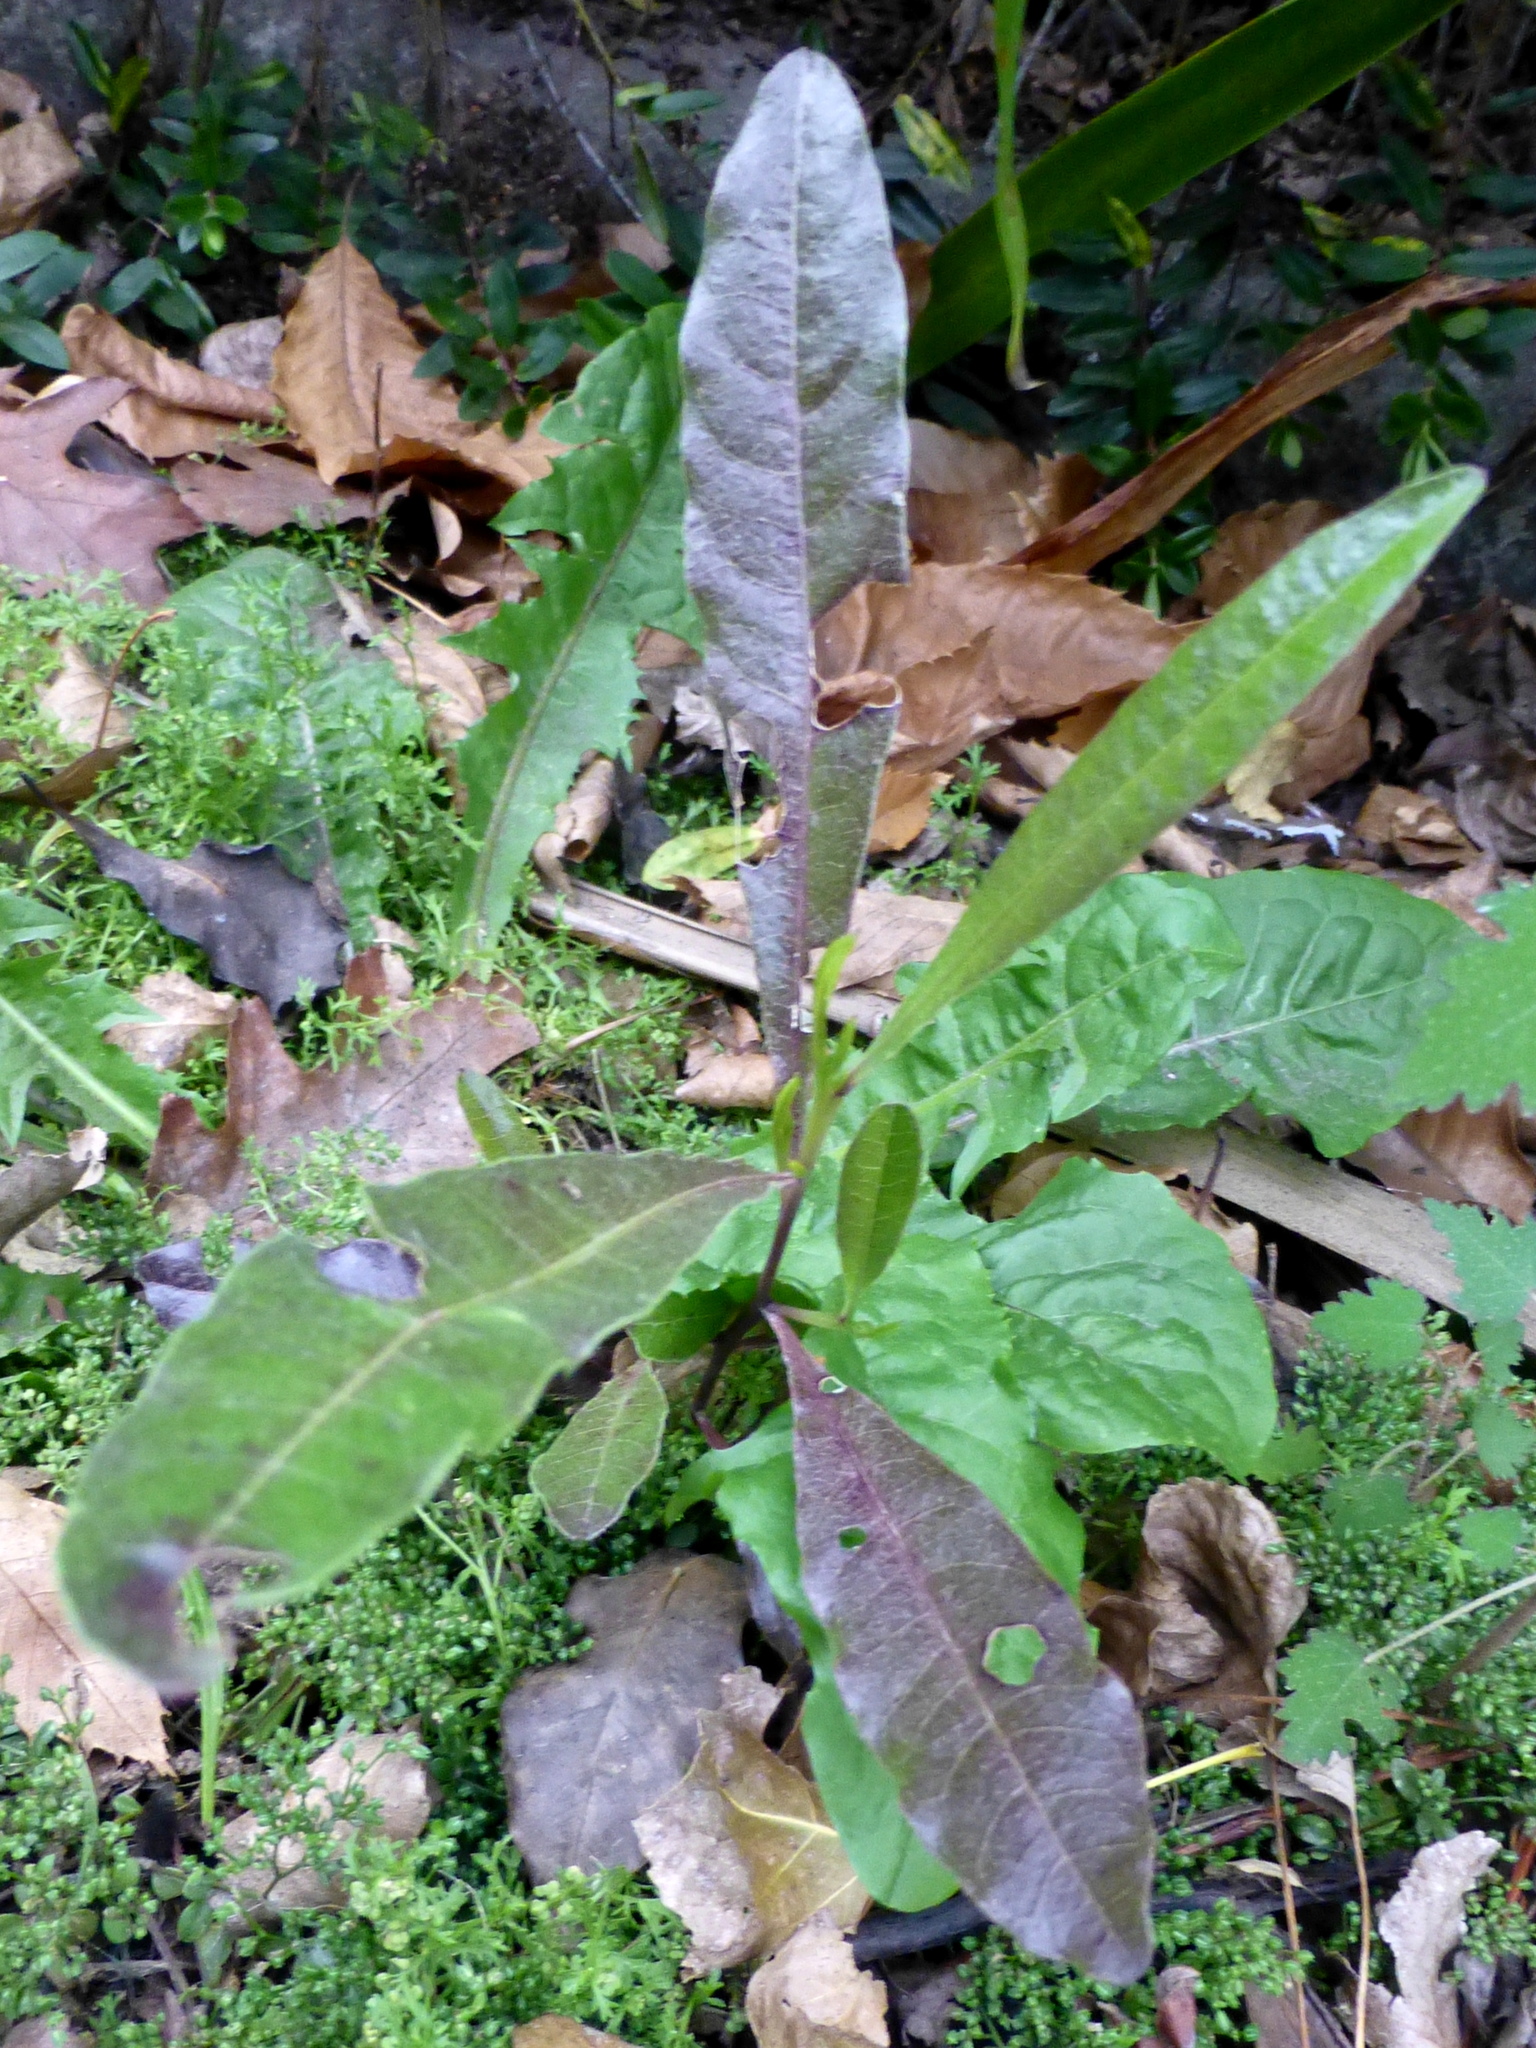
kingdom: Plantae
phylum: Tracheophyta
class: Magnoliopsida
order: Sapindales
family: Sapindaceae
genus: Dodonaea
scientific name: Dodonaea viscosa
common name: Hopbush
